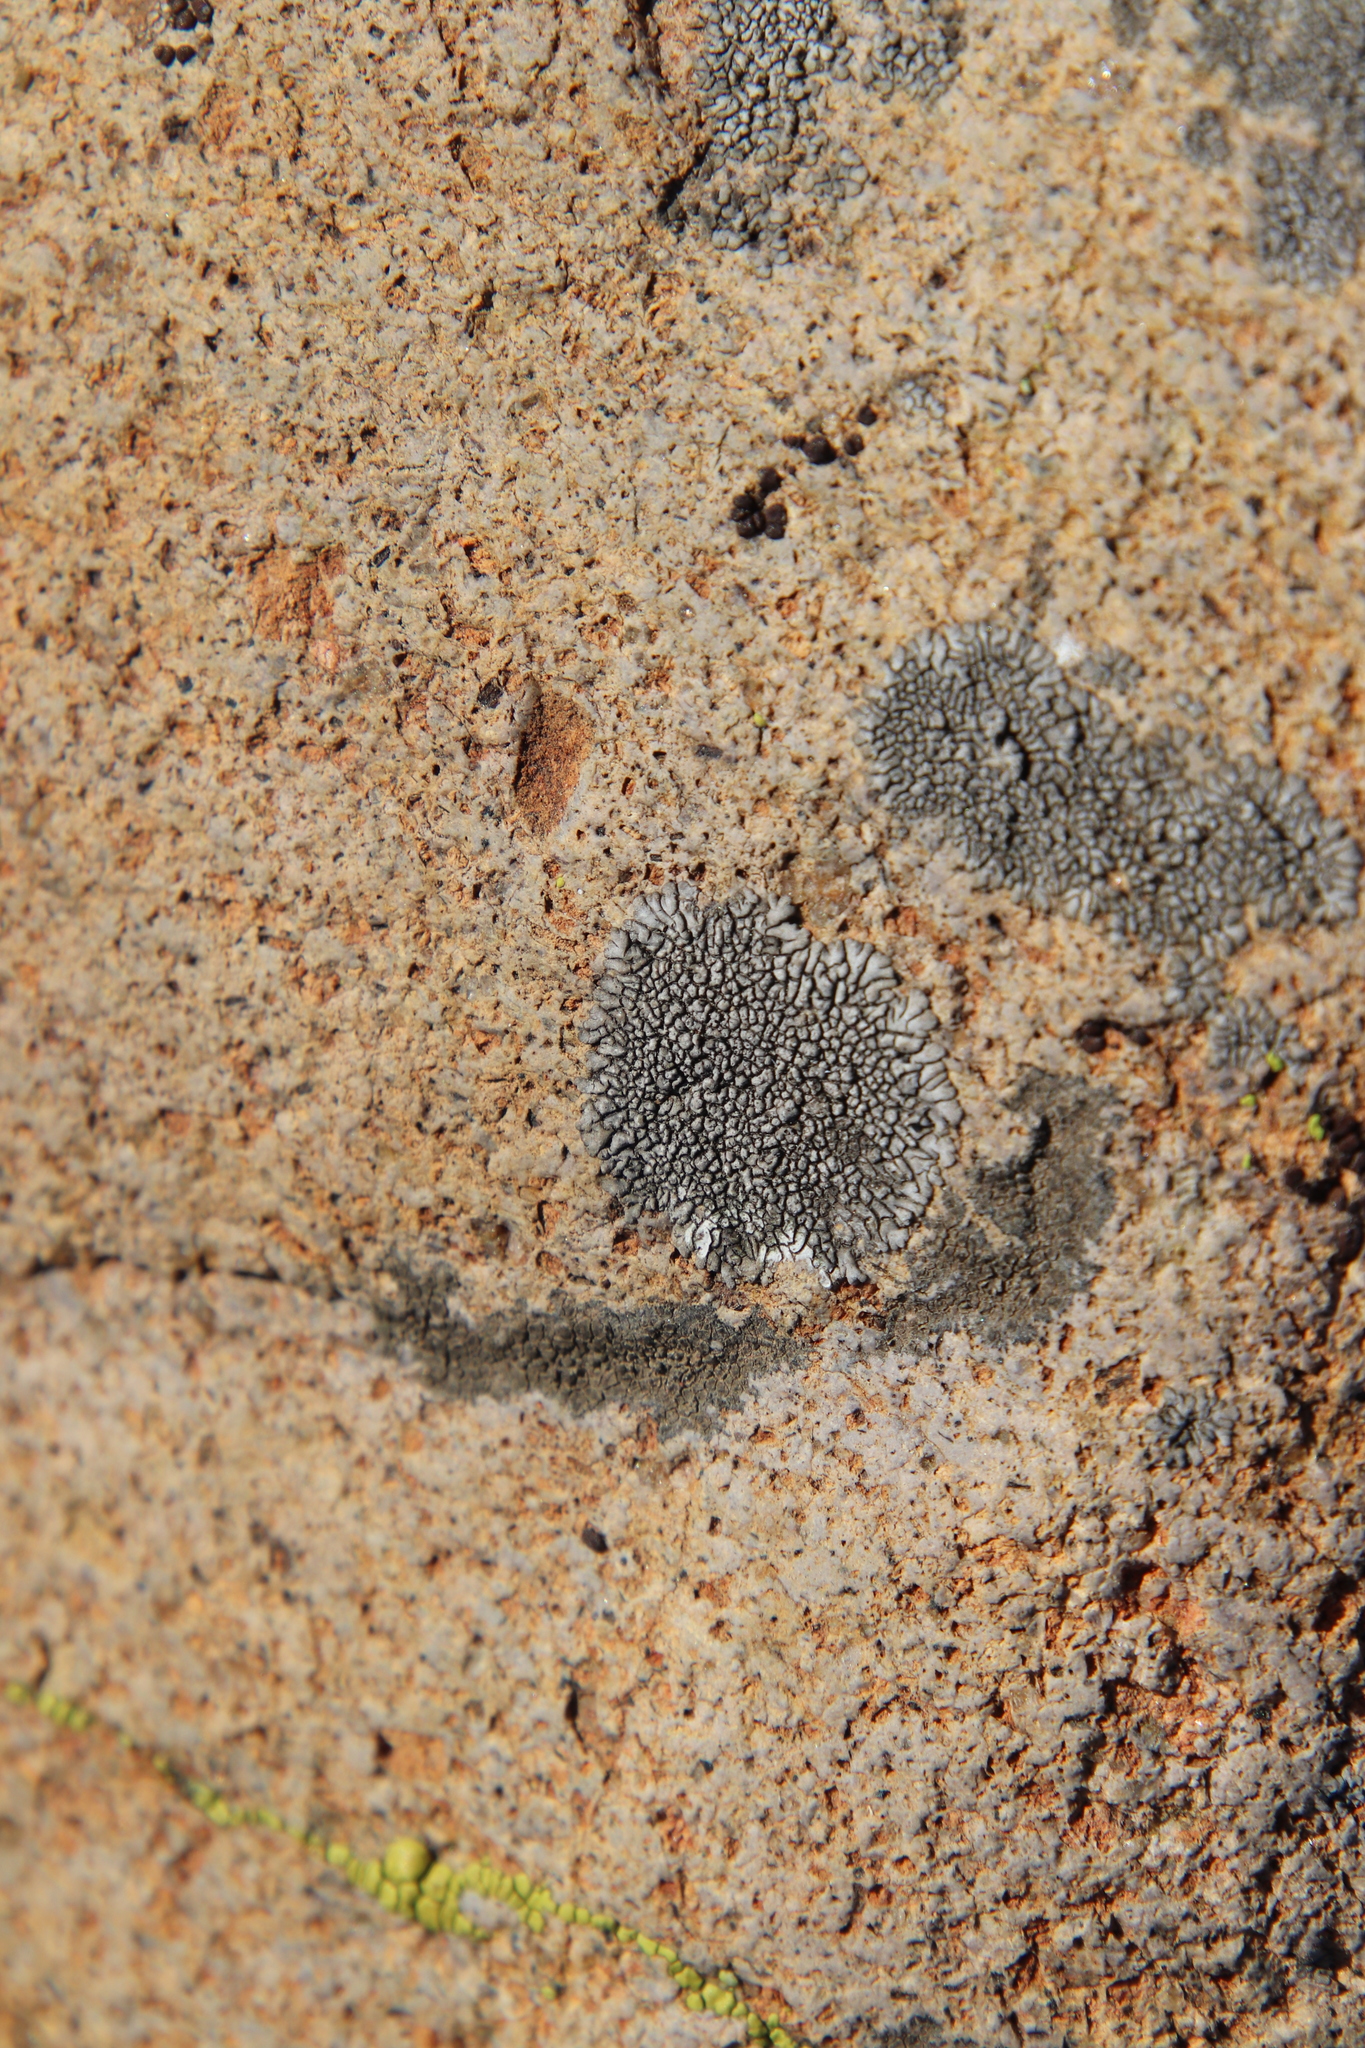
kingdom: Fungi
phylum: Ascomycota
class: Lecanoromycetes
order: Caliciales
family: Caliciaceae
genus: Dimelaena
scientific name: Dimelaena radiata
